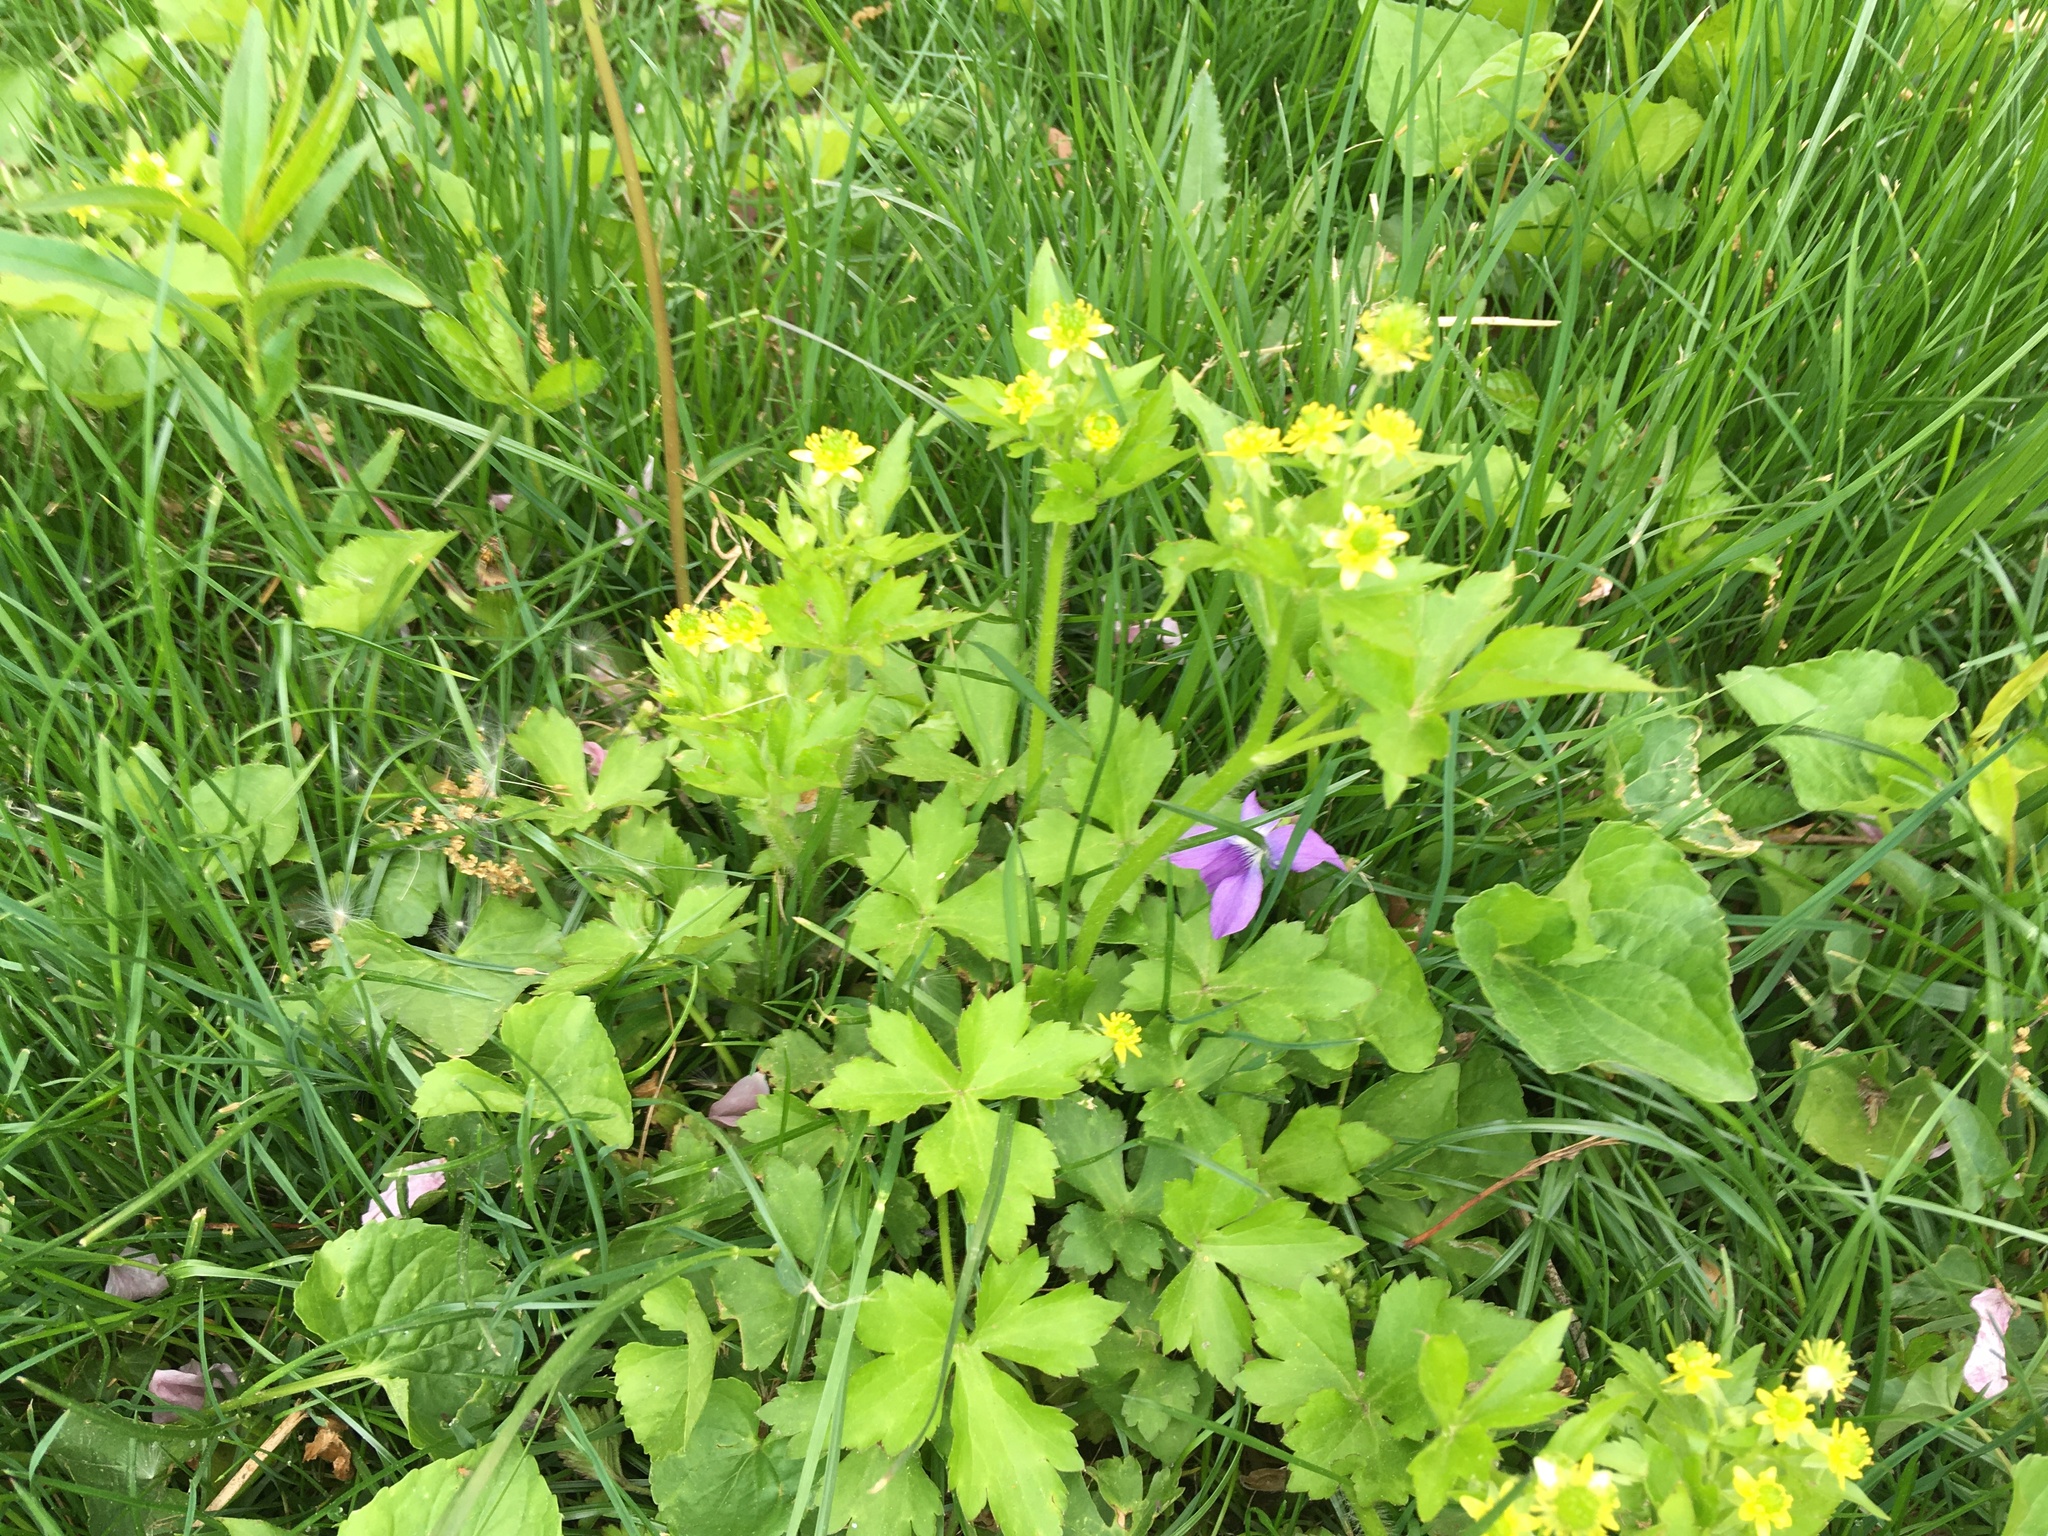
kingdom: Plantae
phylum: Tracheophyta
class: Magnoliopsida
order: Ranunculales
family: Ranunculaceae
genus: Ranunculus
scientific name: Ranunculus recurvatus
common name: Blisterwort
